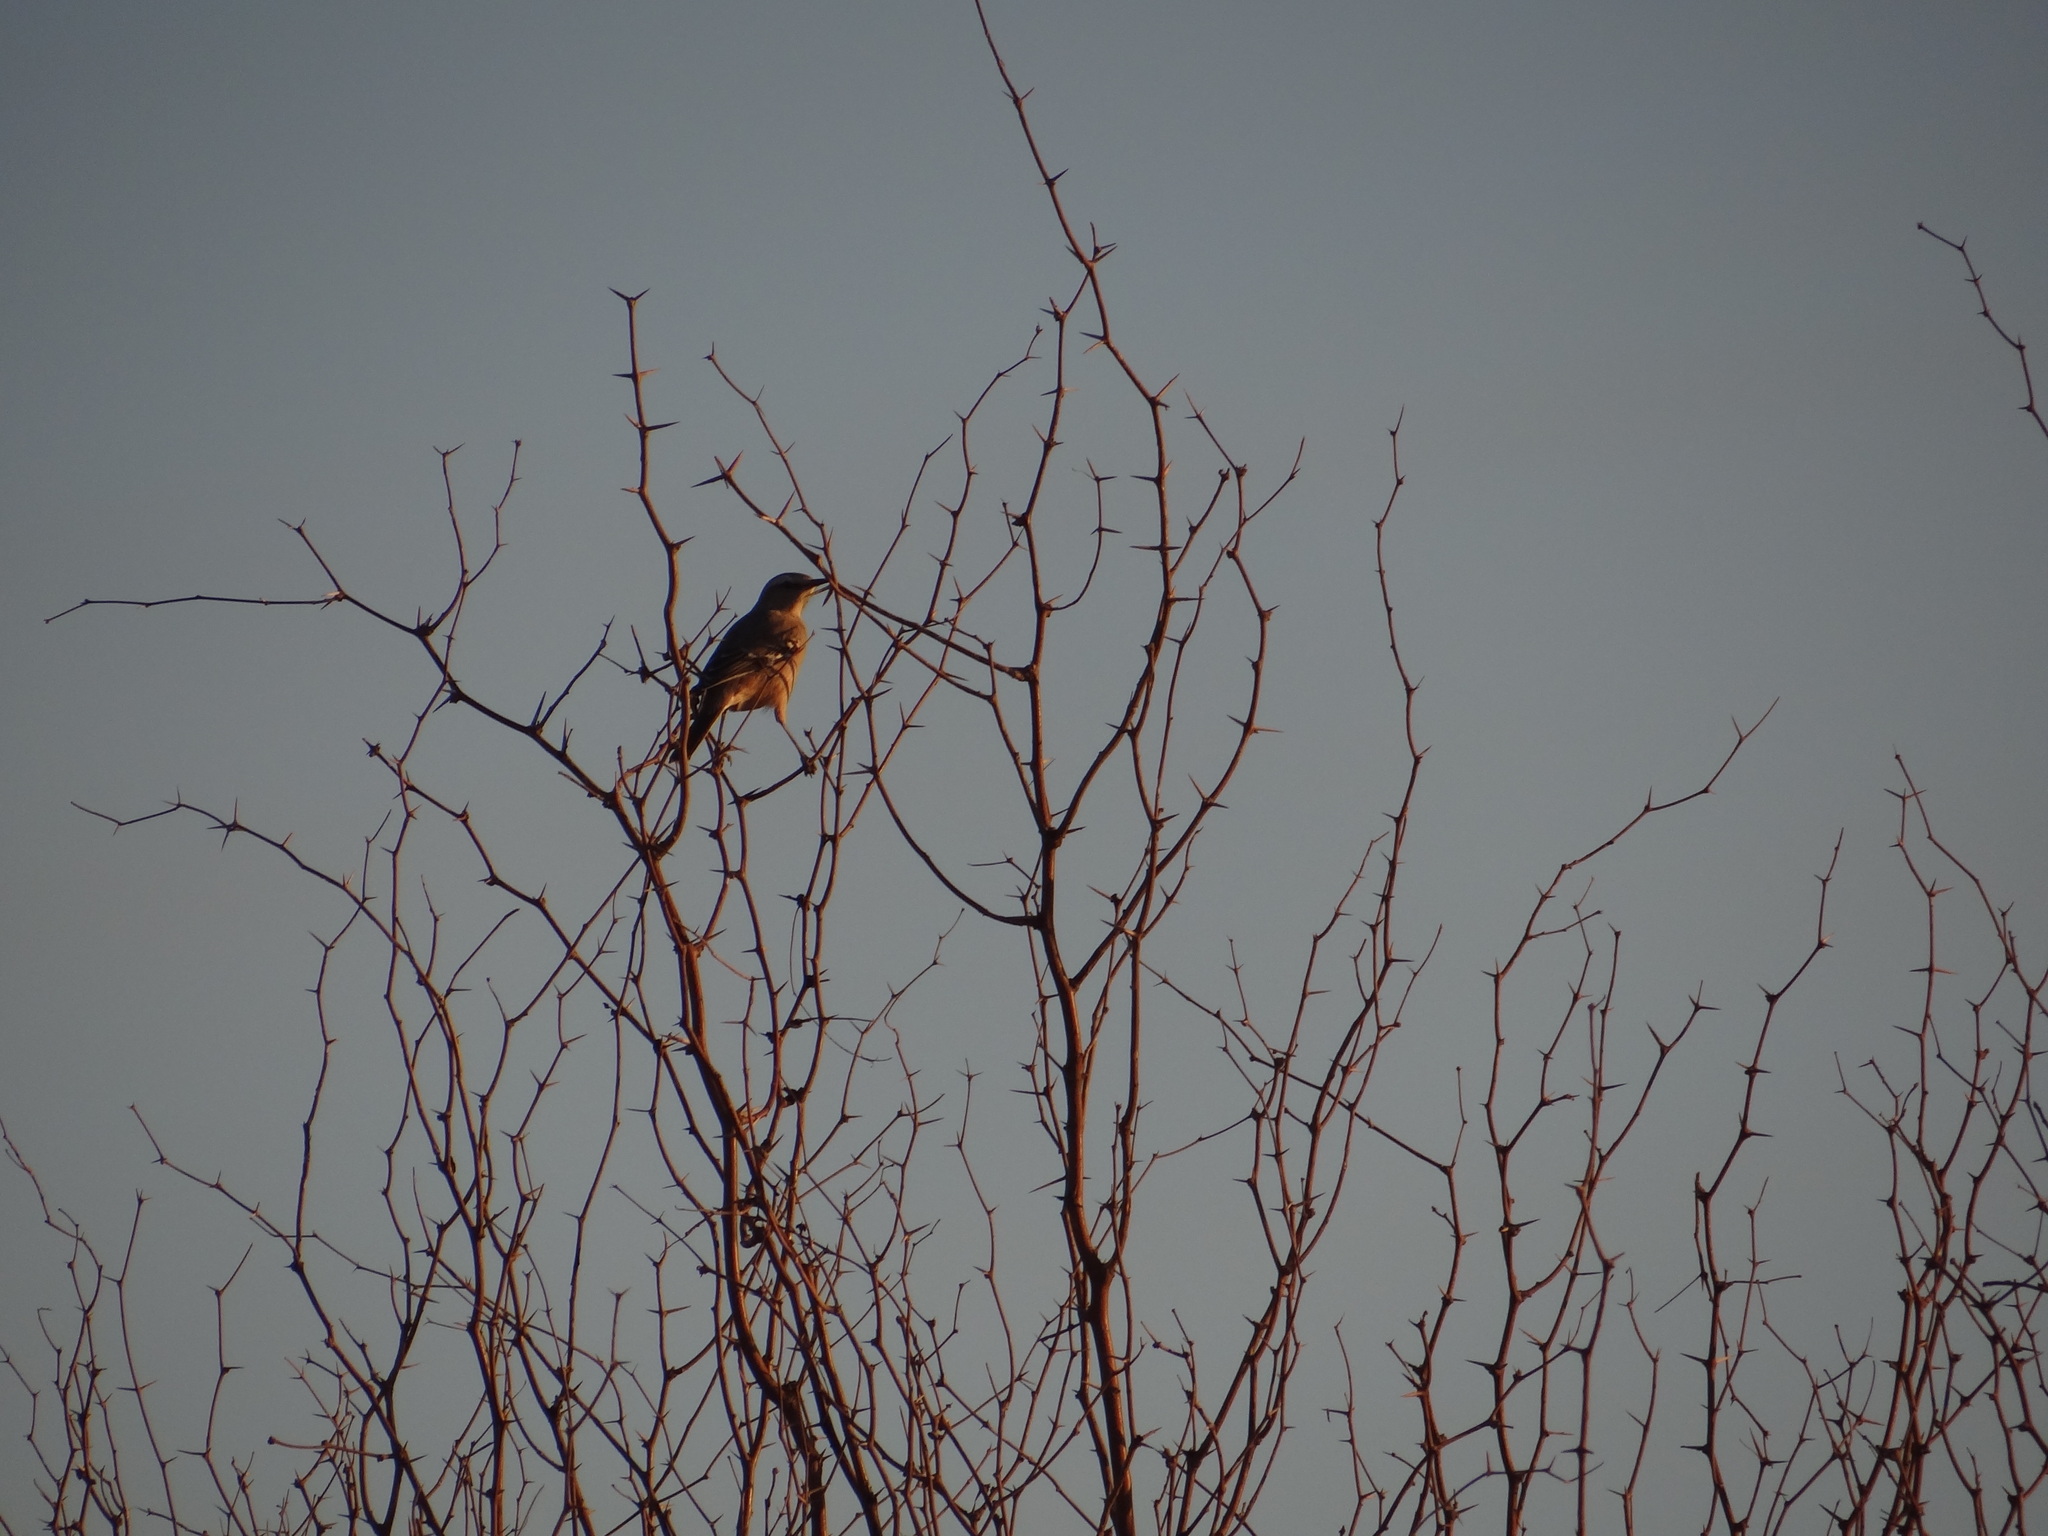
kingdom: Animalia
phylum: Chordata
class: Aves
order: Passeriformes
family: Mimidae
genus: Mimus
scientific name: Mimus patagonicus
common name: Patagonian mockingbird
